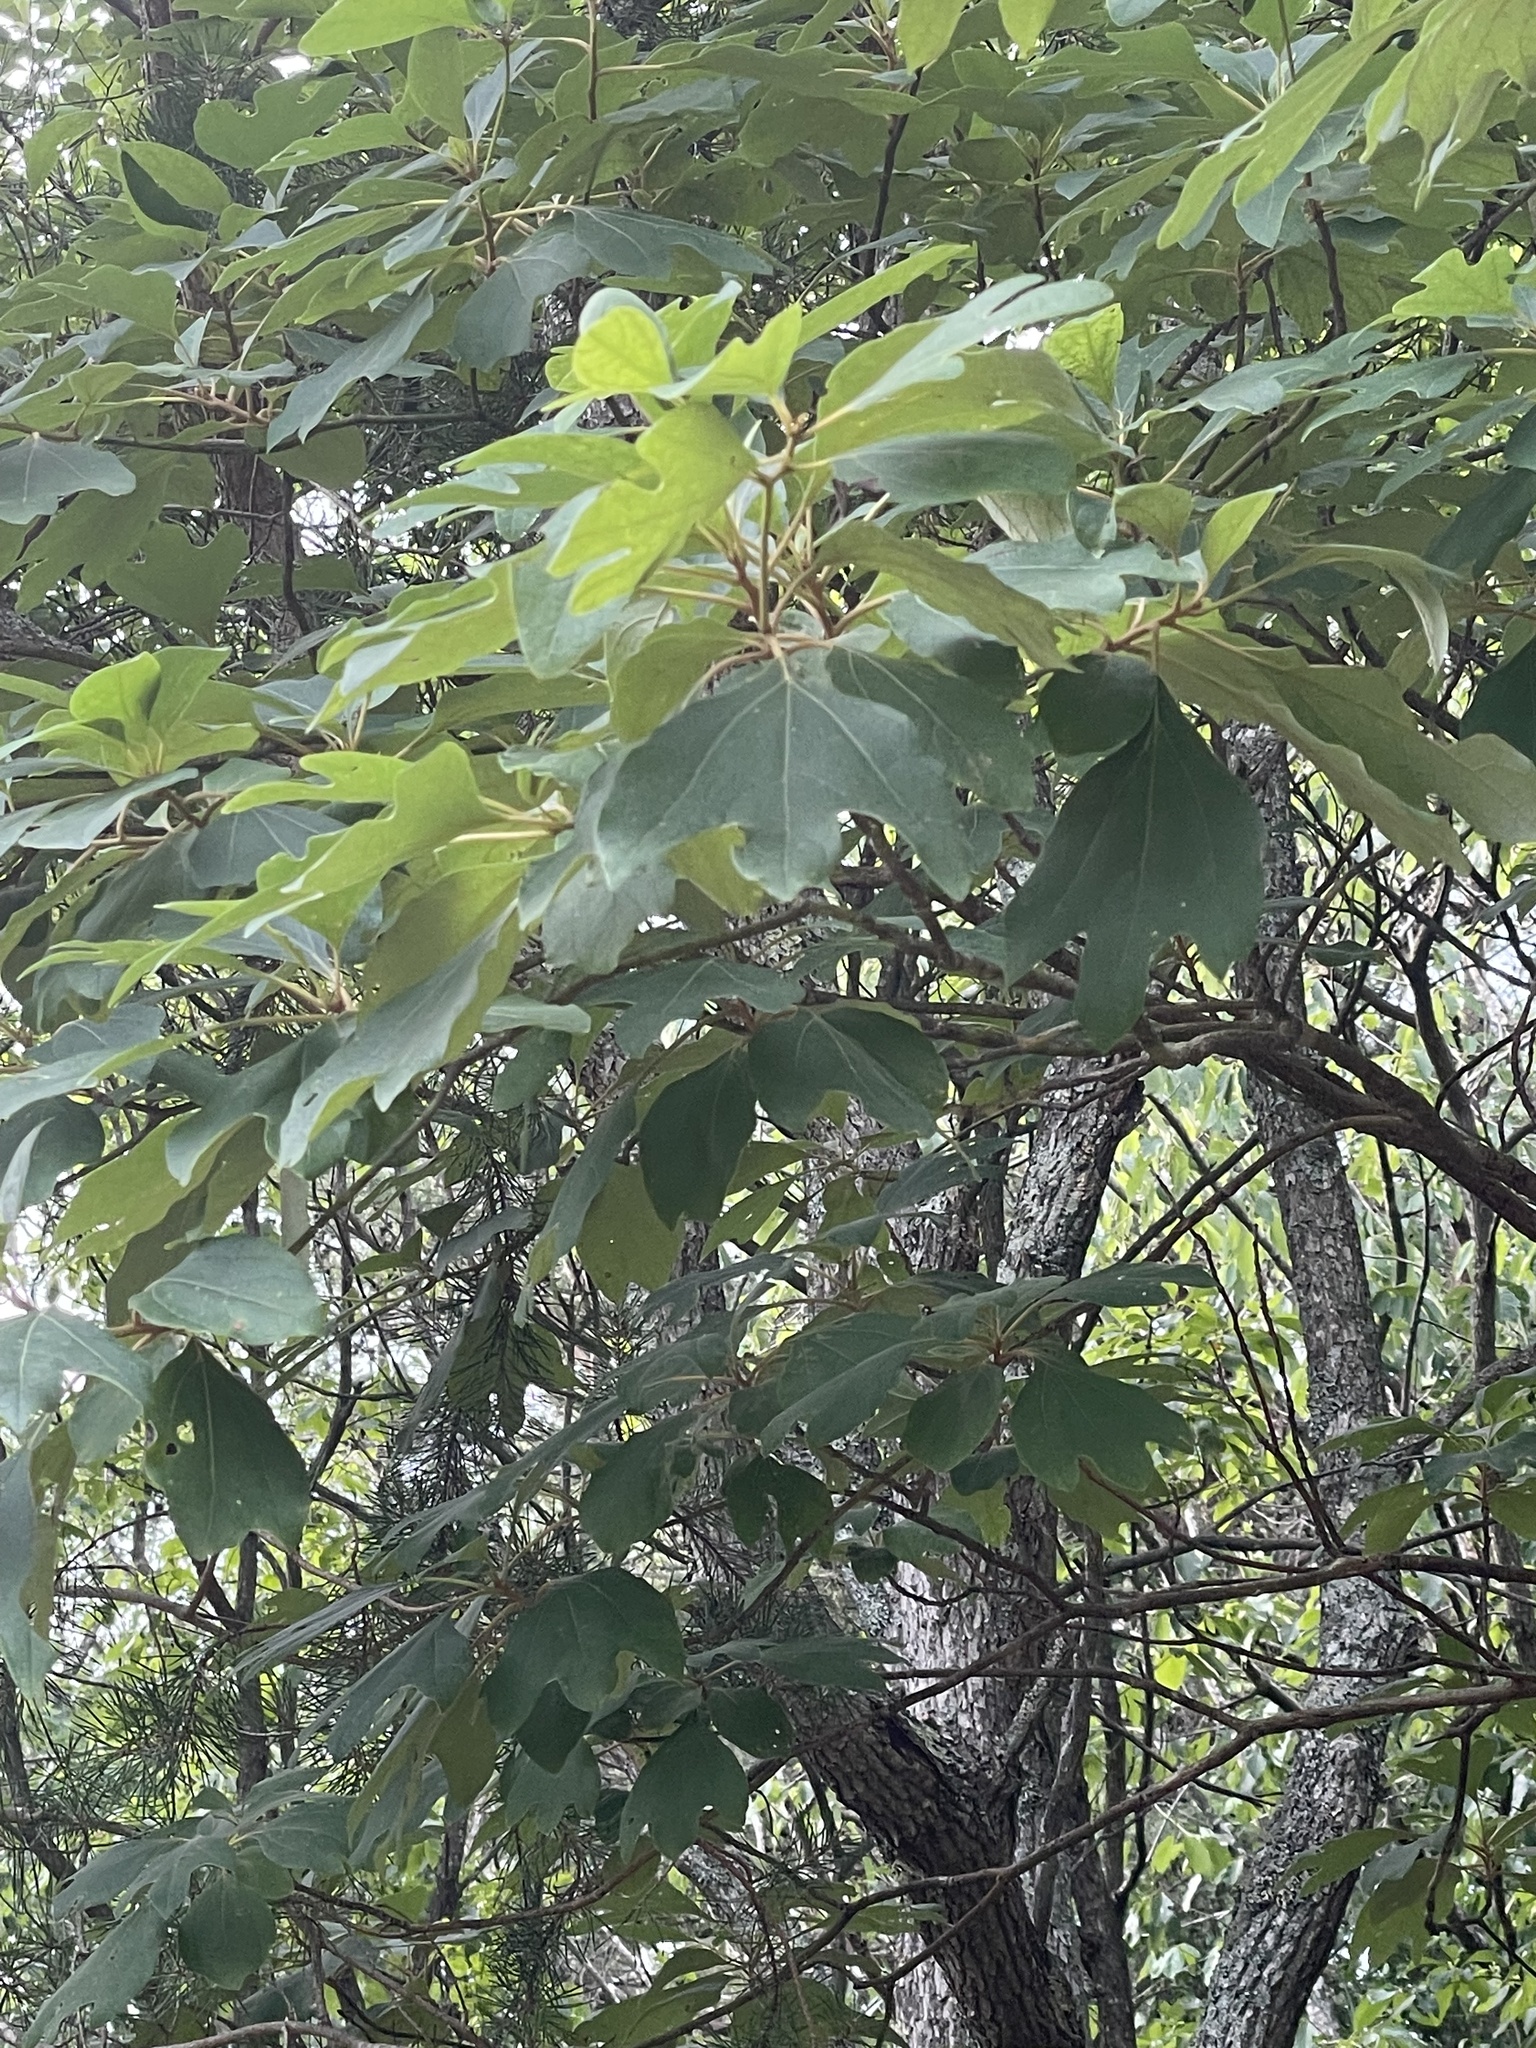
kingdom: Plantae
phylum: Tracheophyta
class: Magnoliopsida
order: Laurales
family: Lauraceae
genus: Sassafras
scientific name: Sassafras albidum
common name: Sassafras
